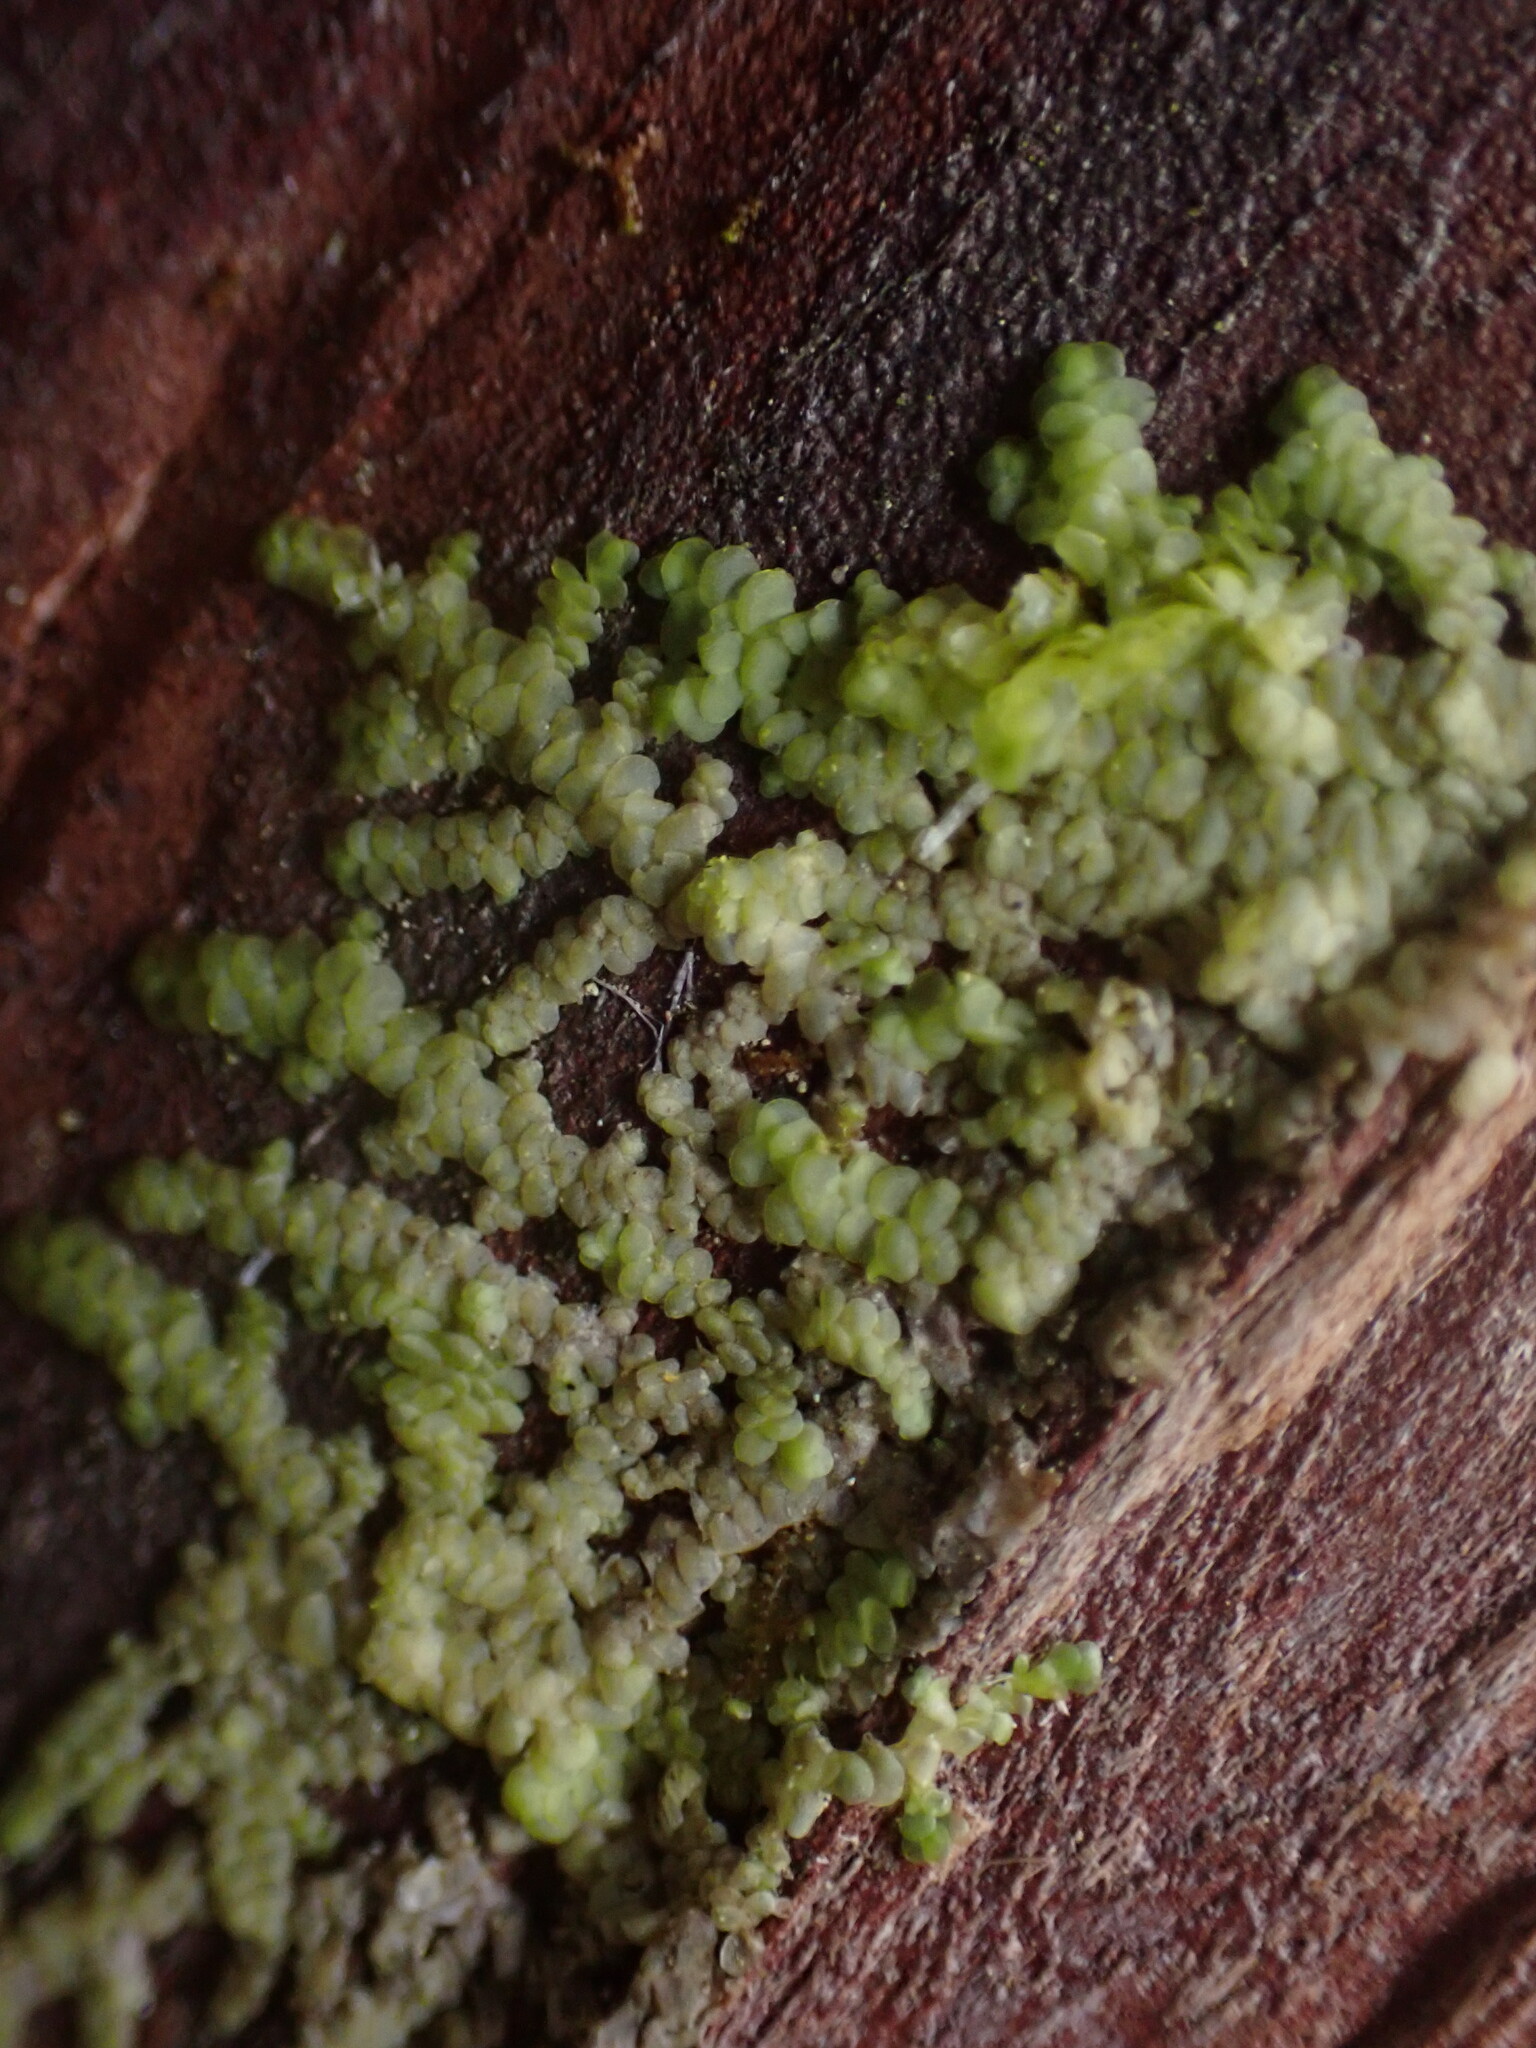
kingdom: Plantae
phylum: Marchantiophyta
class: Jungermanniopsida
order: Porellales
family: Radulaceae
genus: Radula
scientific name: Radula complanata
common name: Flat-leaved scalewort
